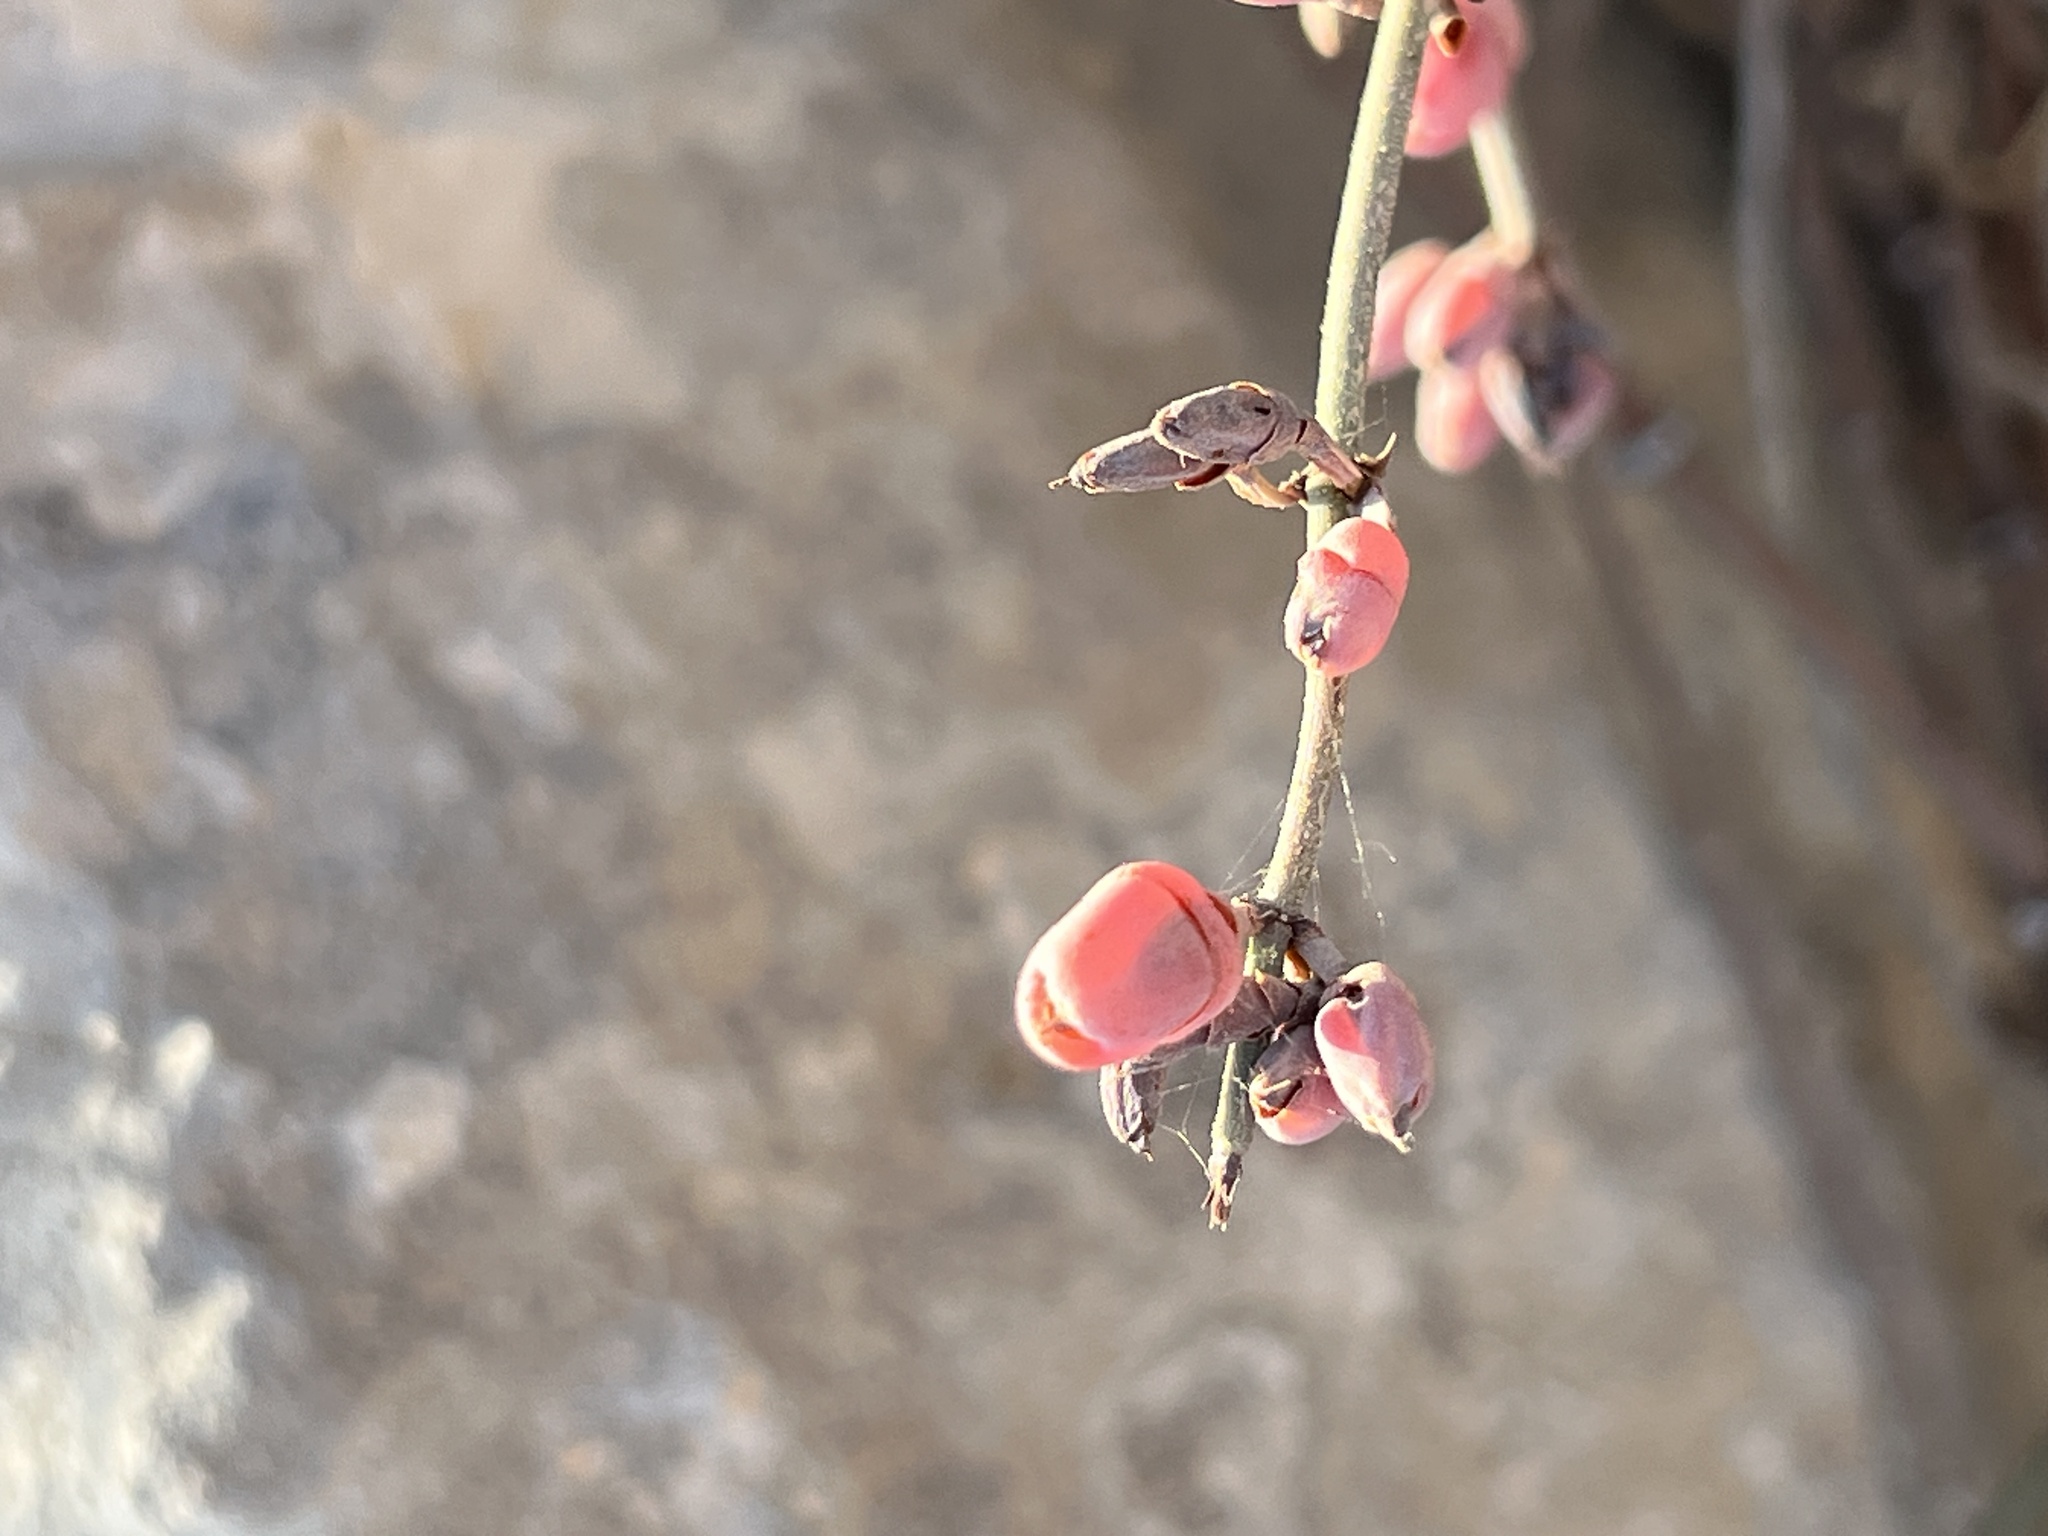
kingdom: Plantae
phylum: Tracheophyta
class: Gnetopsida
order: Ephedrales
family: Ephedraceae
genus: Ephedra
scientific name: Ephedra foeminea
